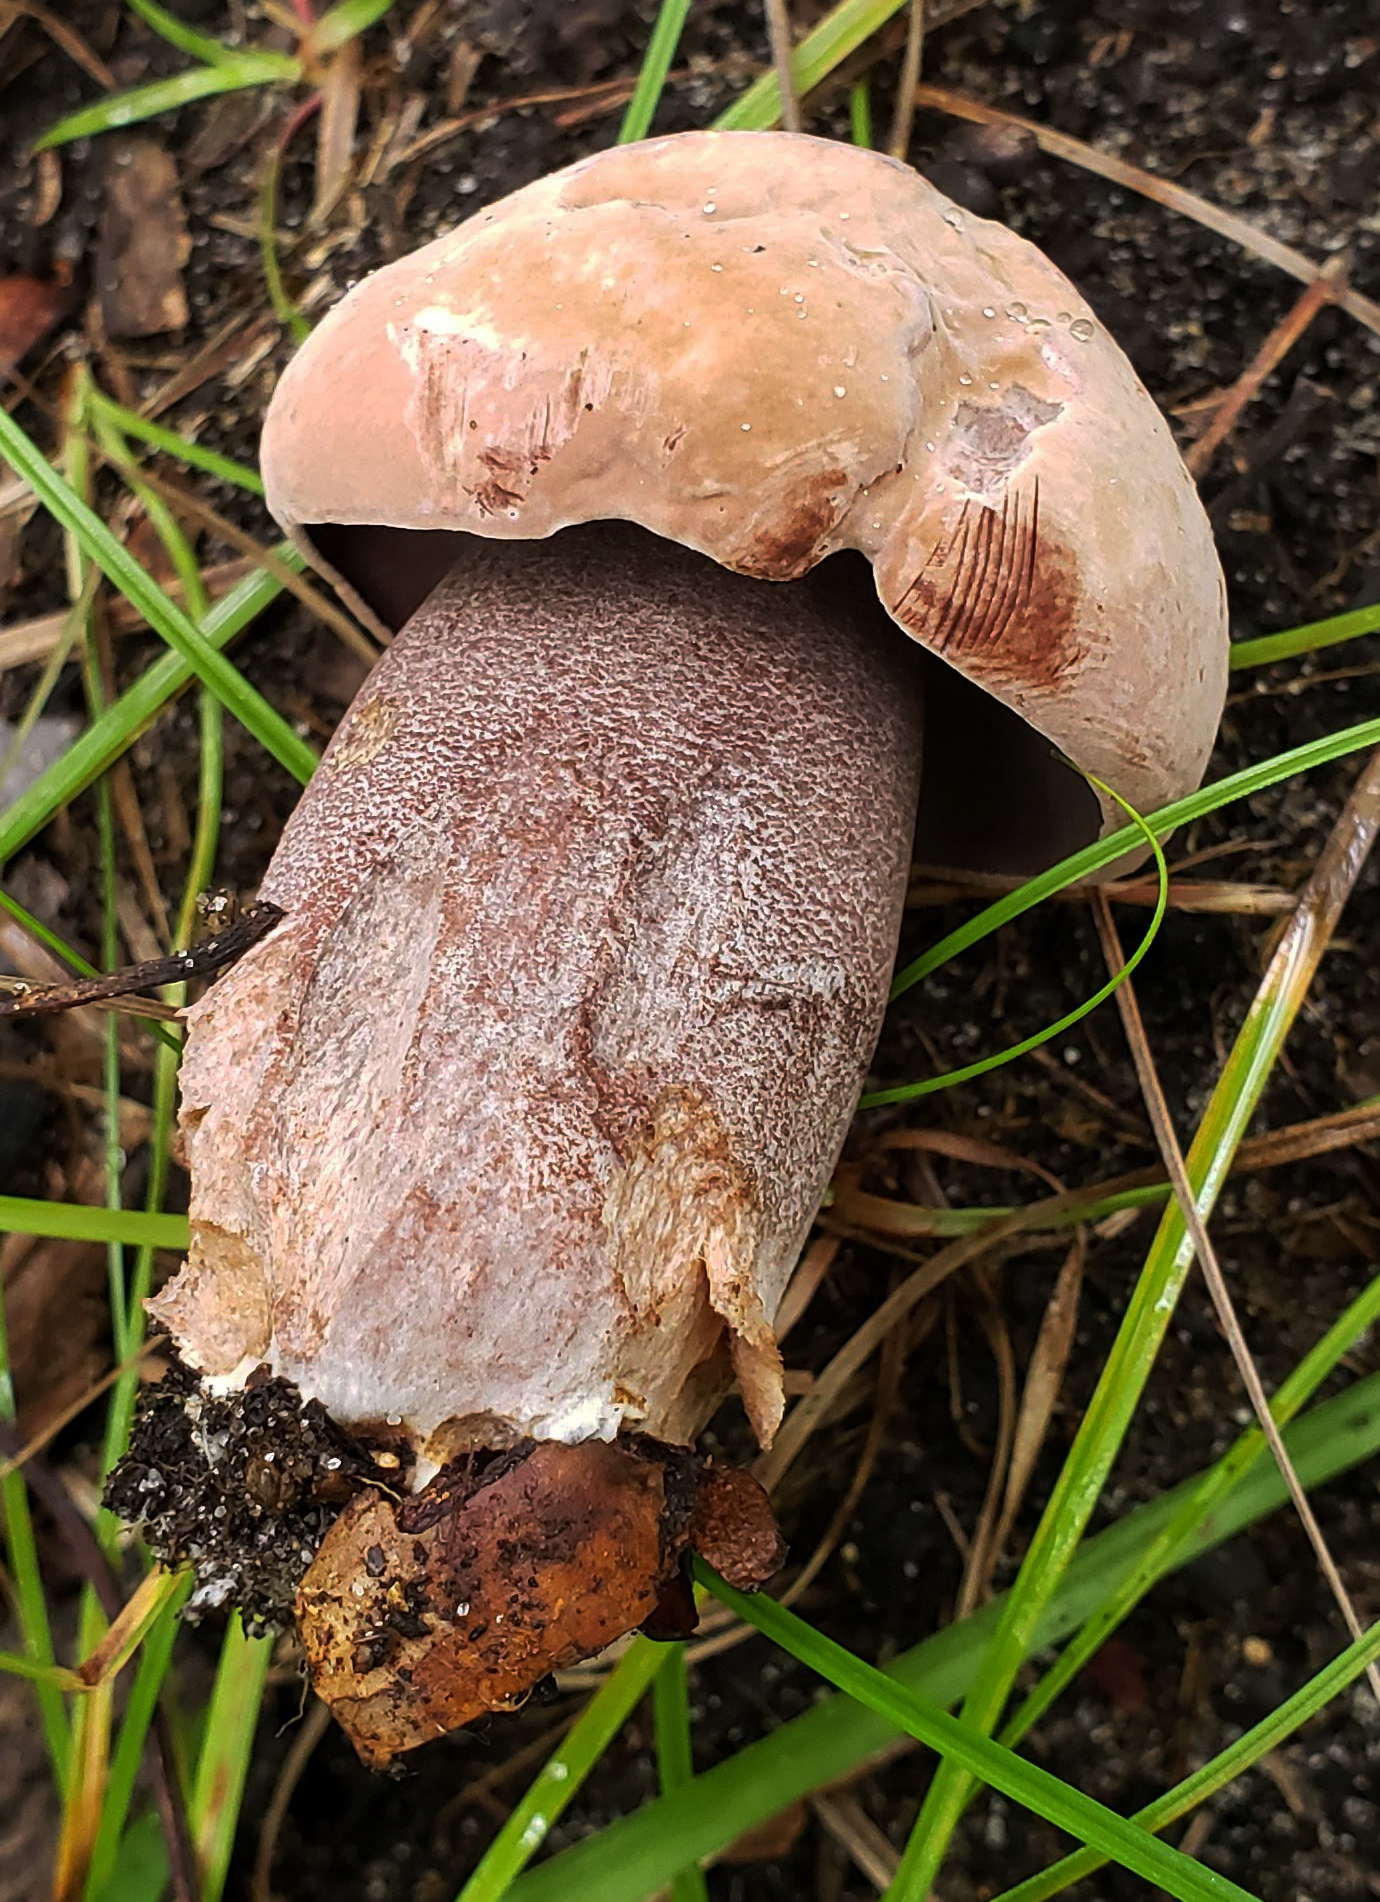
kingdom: Fungi
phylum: Basidiomycota
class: Agaricomycetes
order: Boletales
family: Boletaceae
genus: Sutorius
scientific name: Sutorius eximius
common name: Lilac-brown bolete
